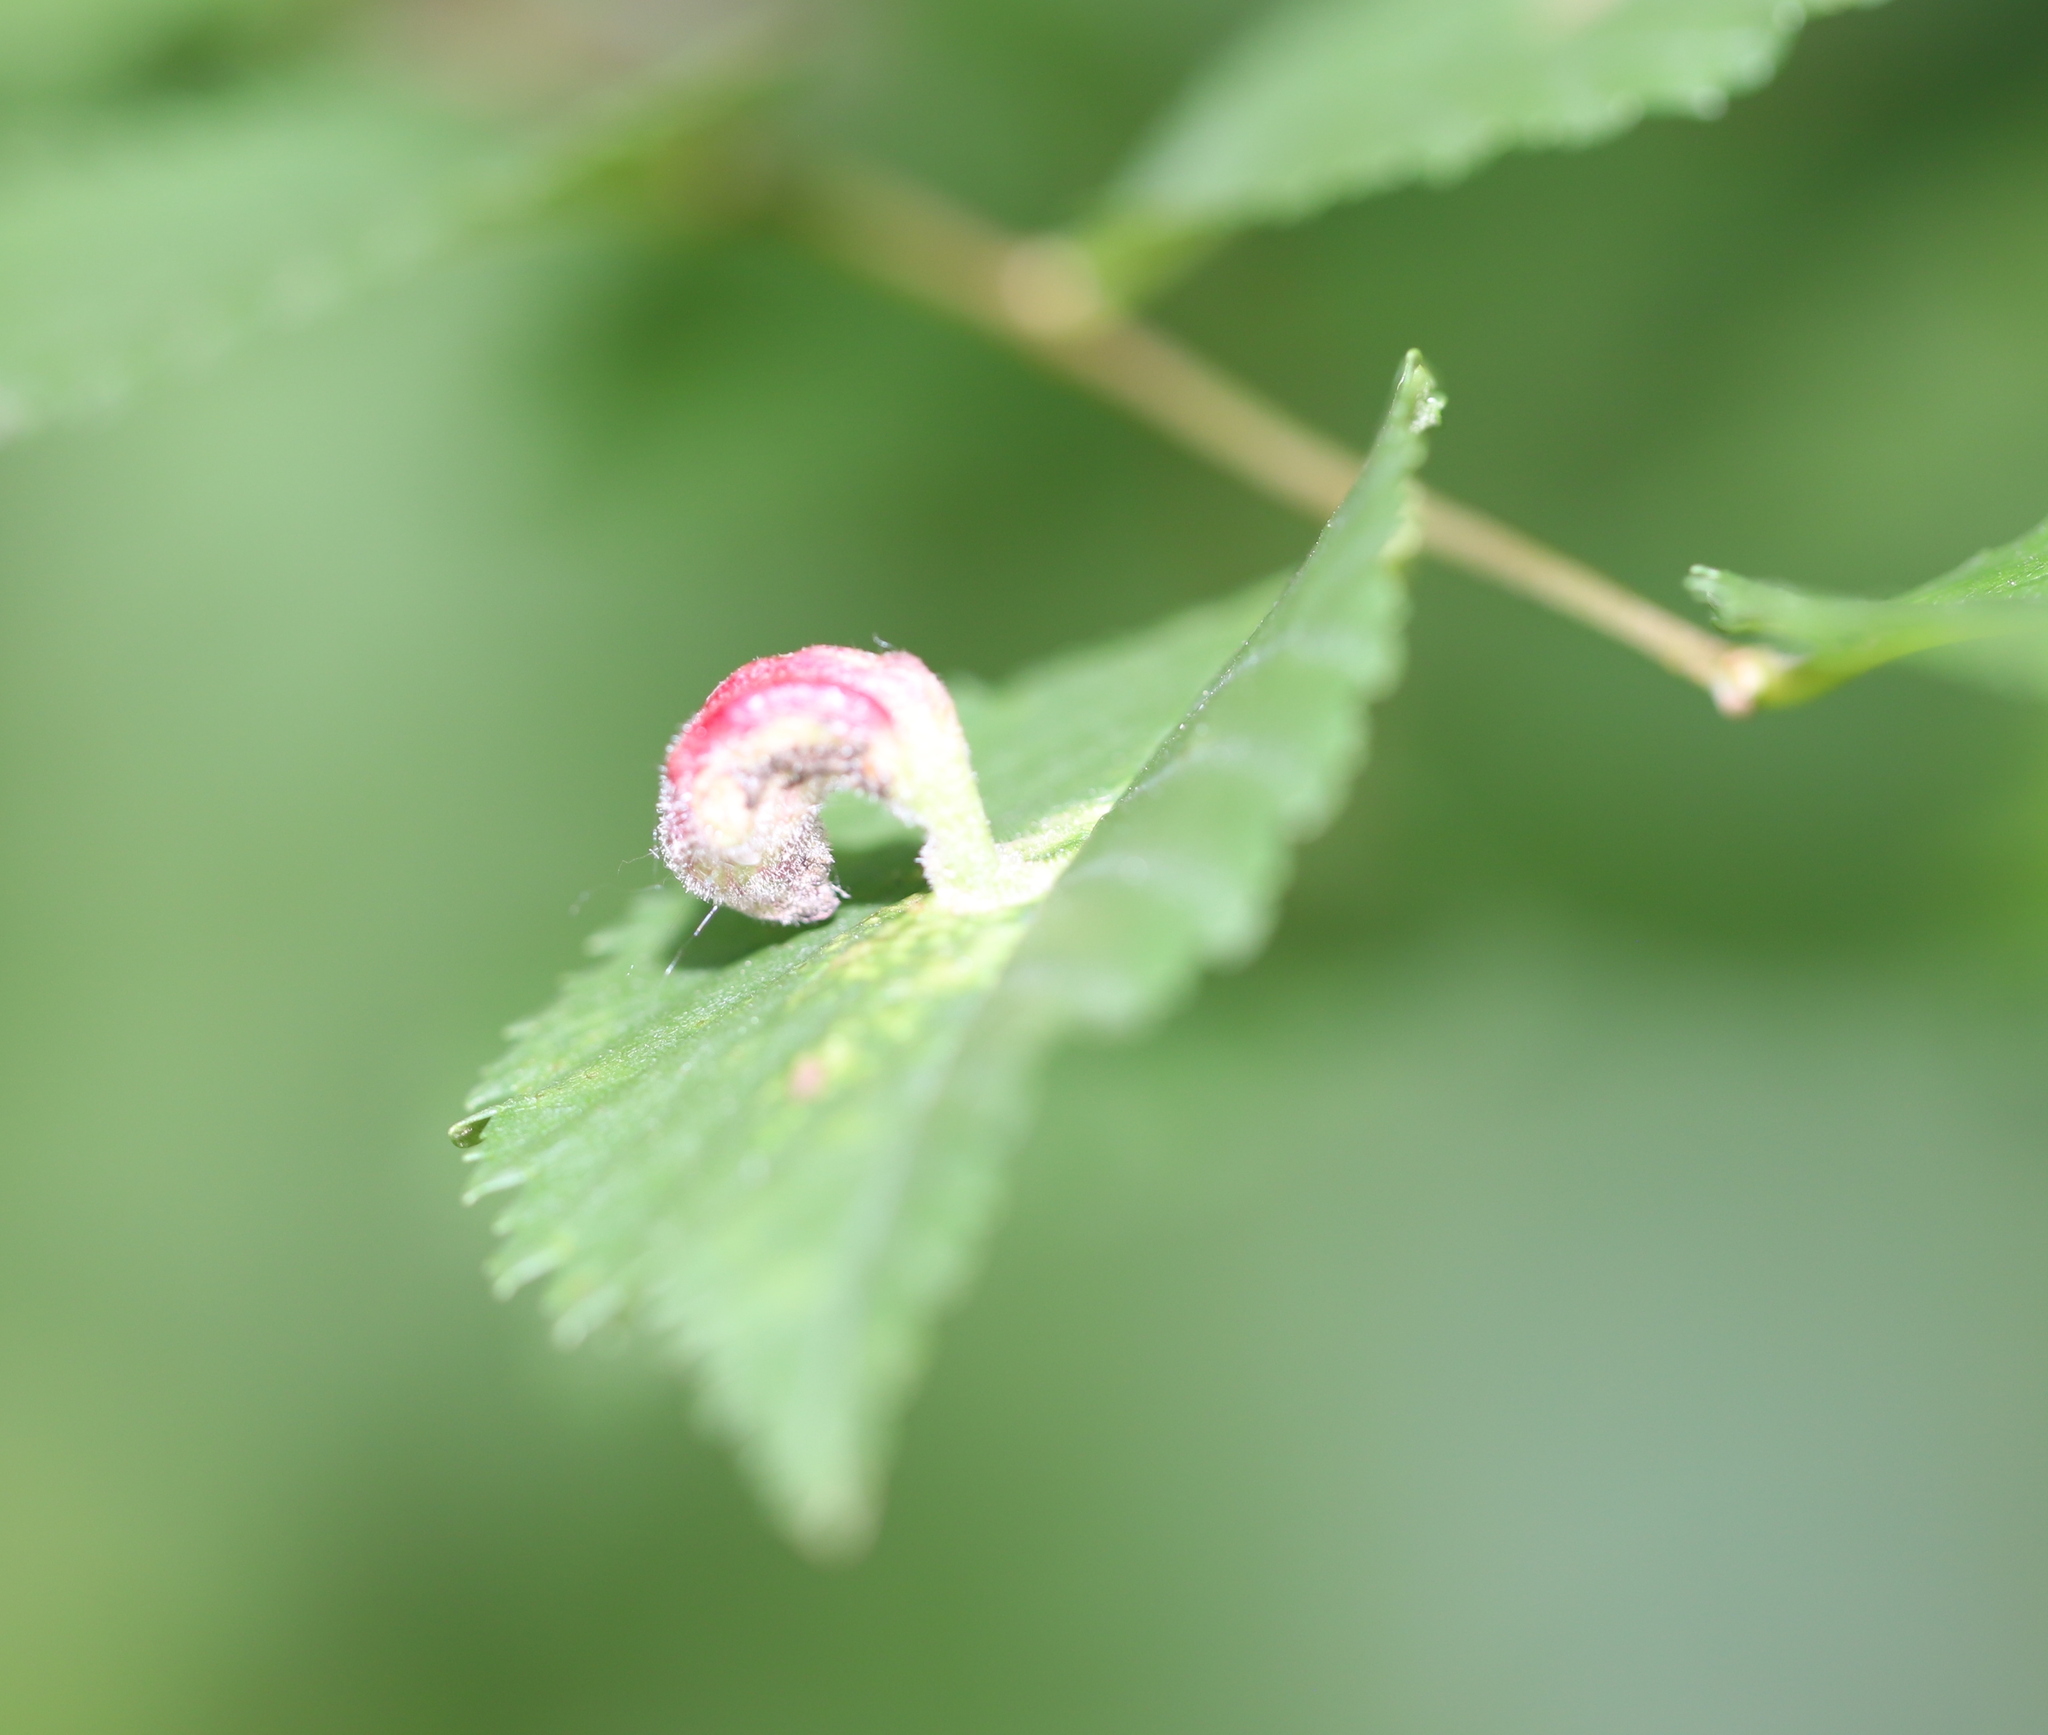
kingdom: Animalia
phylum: Arthropoda
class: Insecta
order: Hemiptera
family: Aphididae
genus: Tetraneura
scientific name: Tetraneura nigriabdominalis
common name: Aphid
